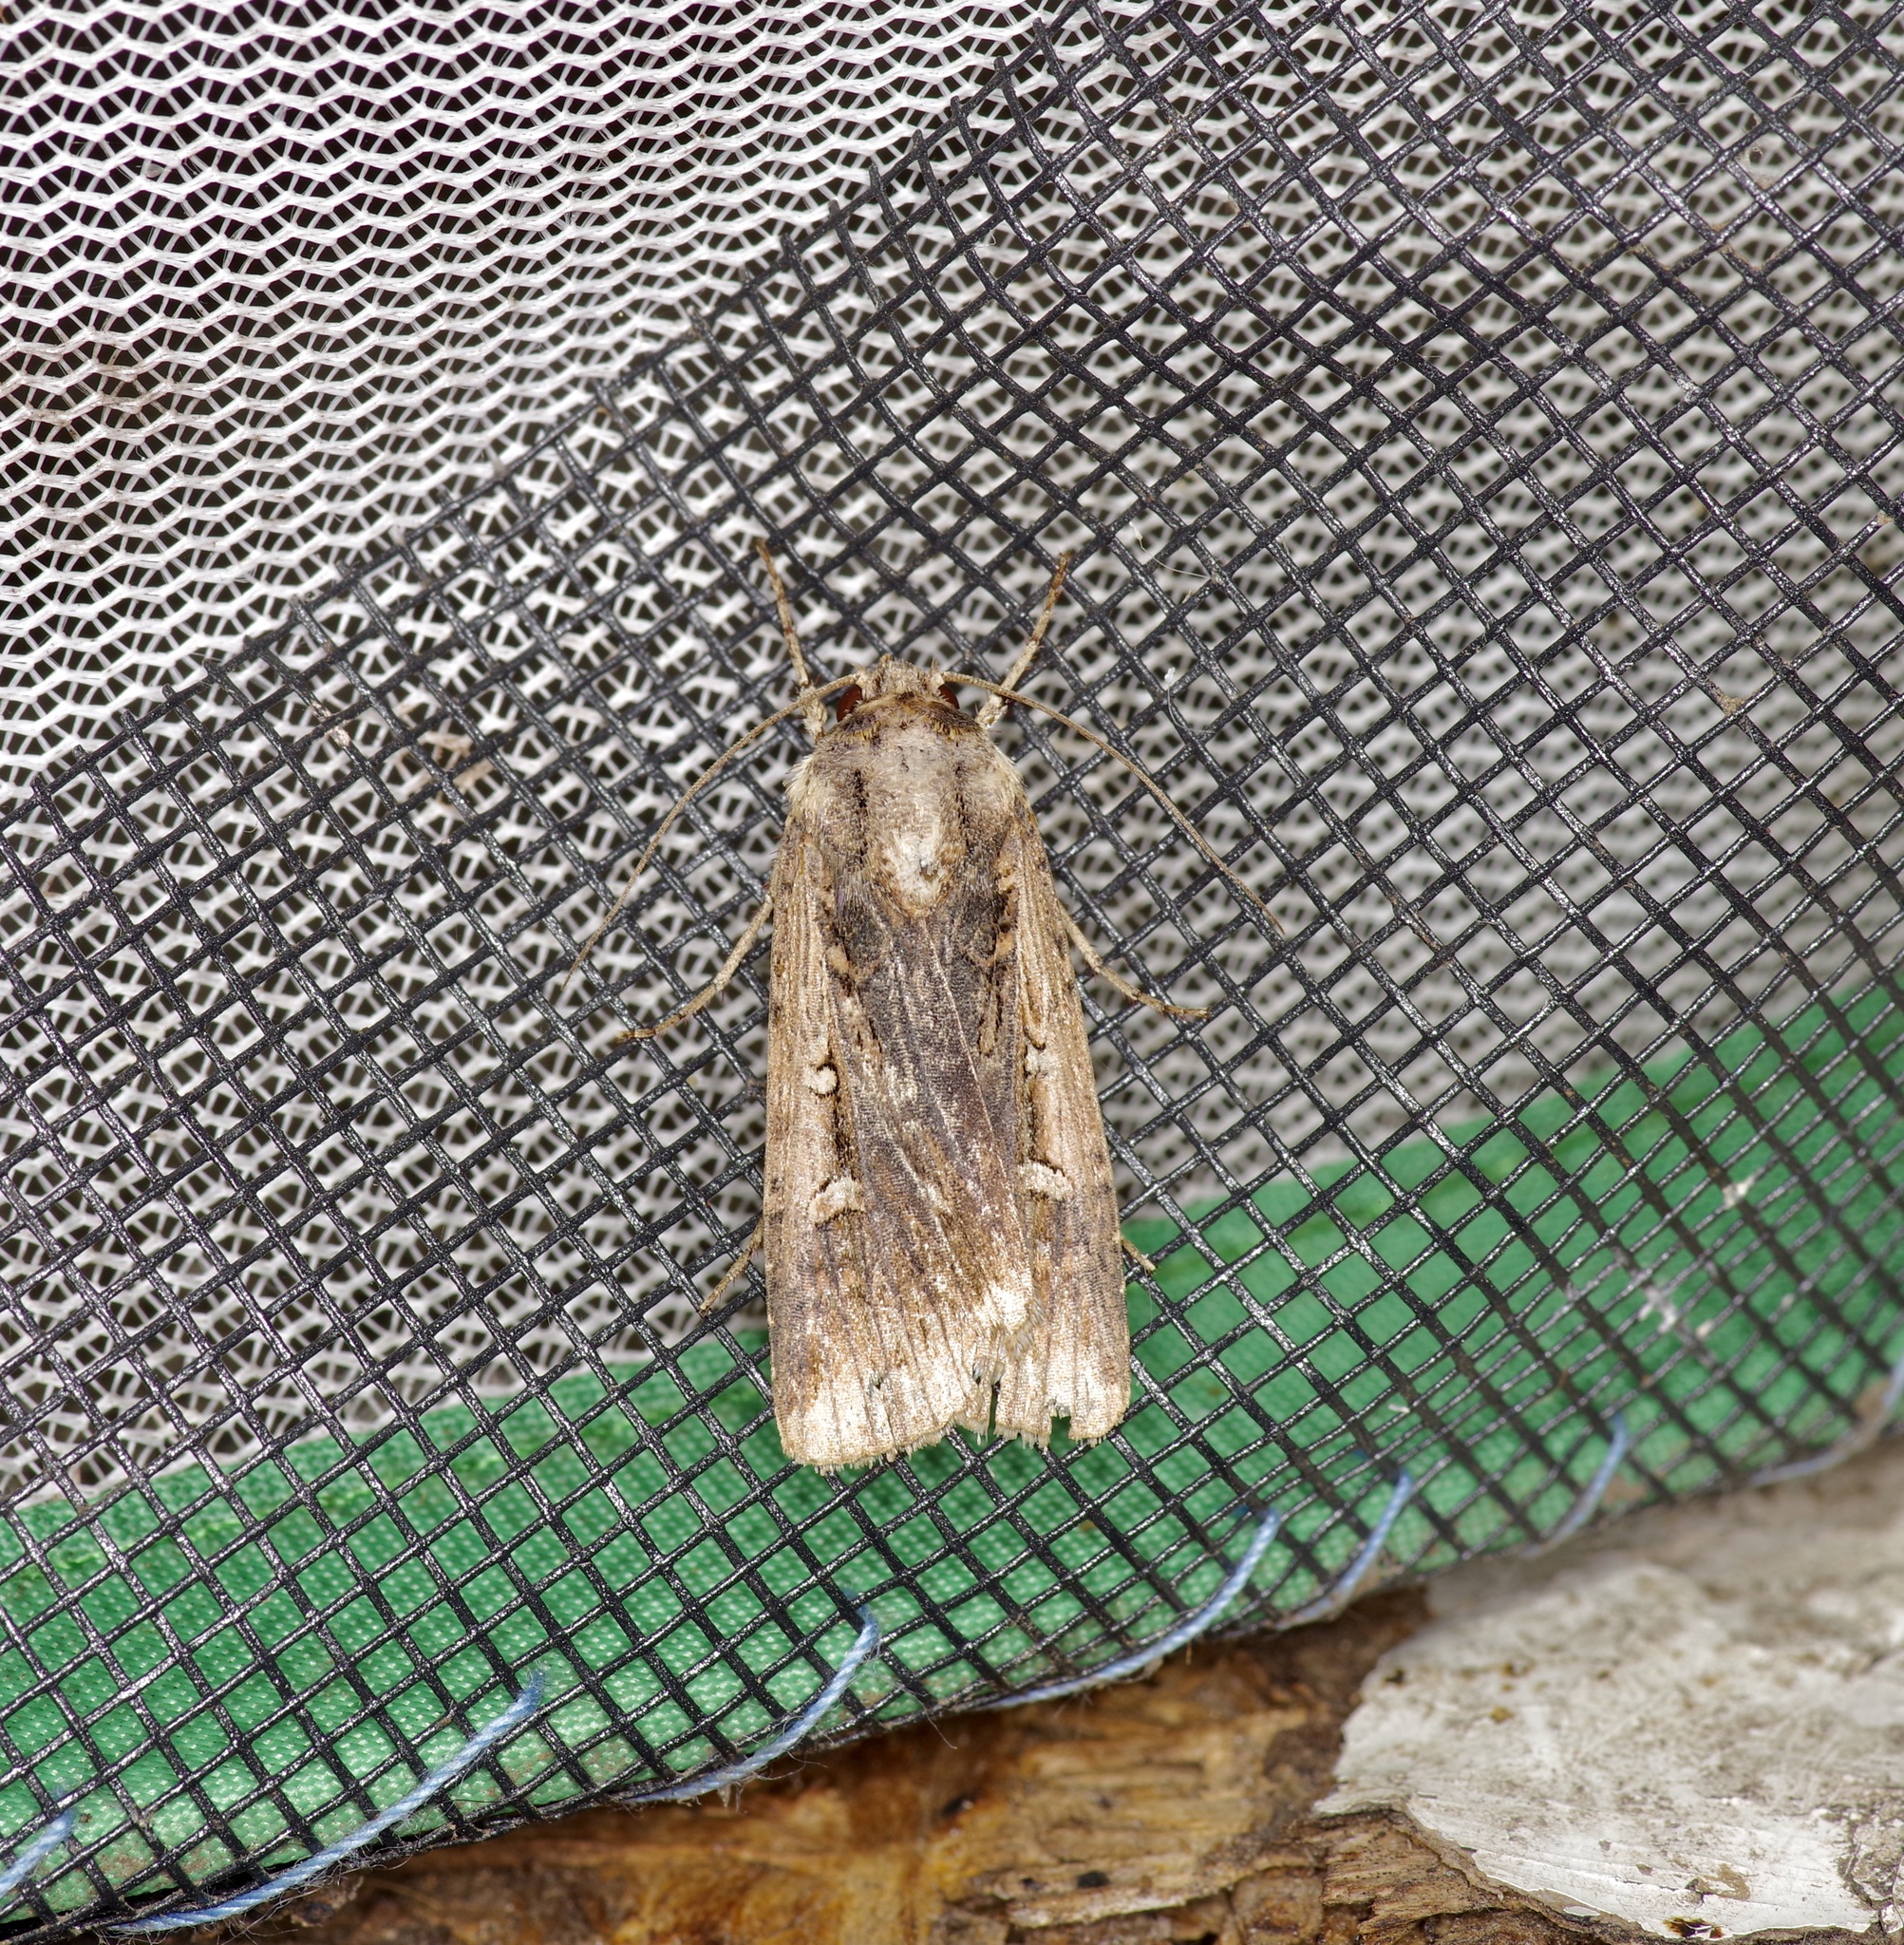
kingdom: Animalia
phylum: Arthropoda
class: Insecta
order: Lepidoptera
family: Noctuidae
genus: Feltia
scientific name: Feltia subterranea
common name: Granulate cutworm
